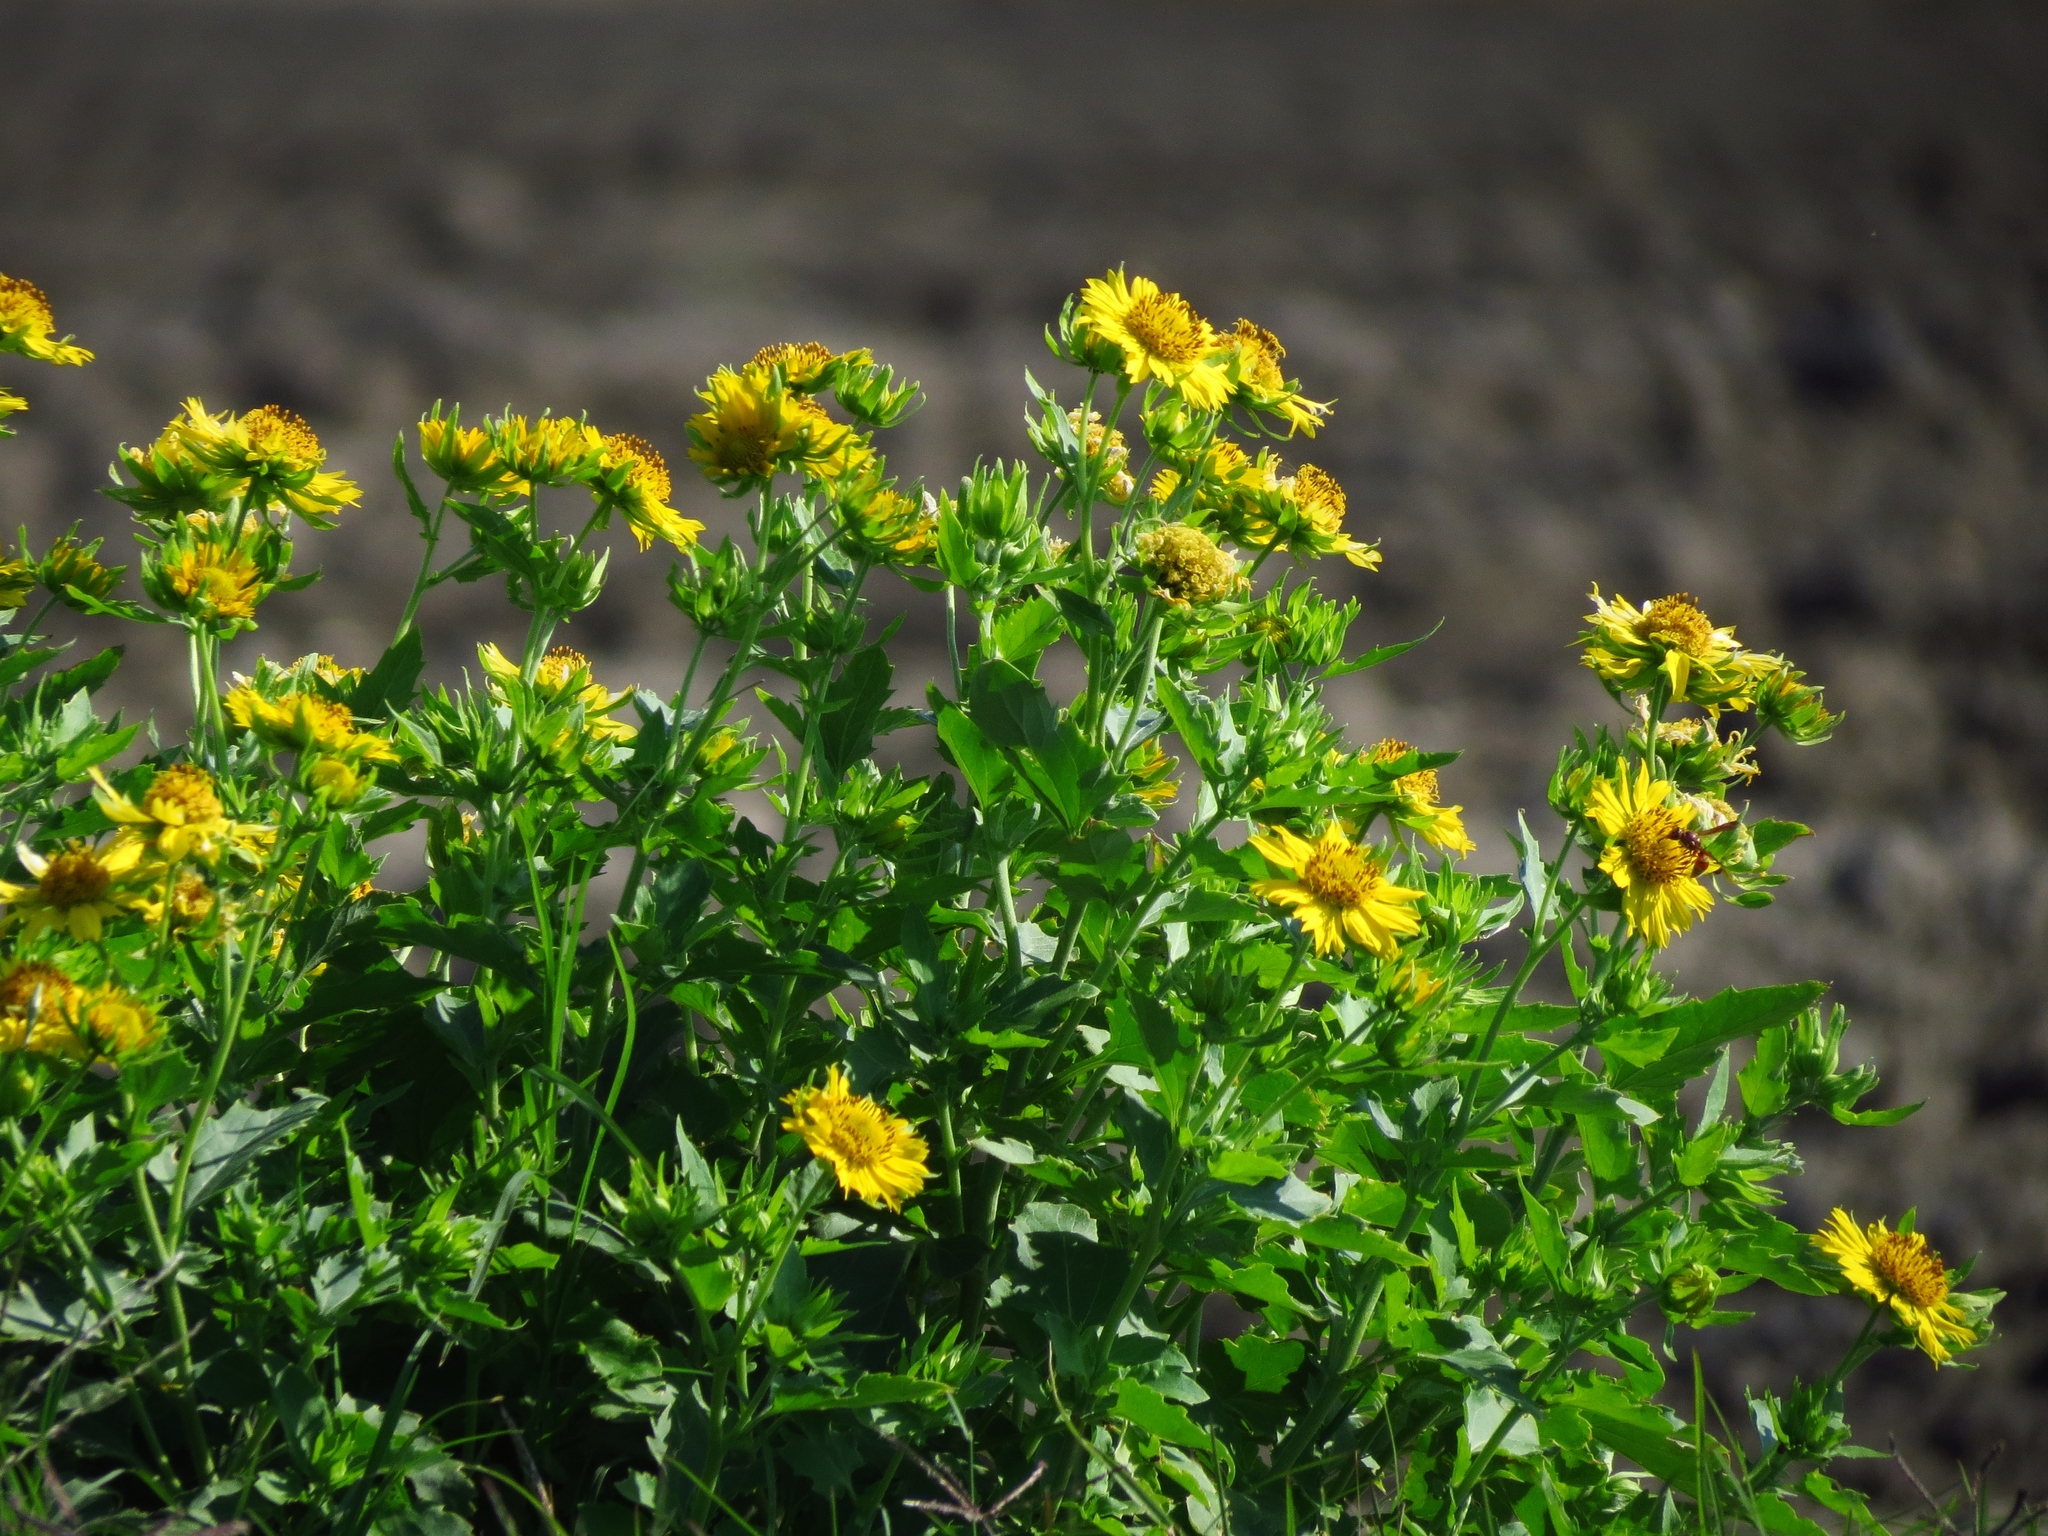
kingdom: Plantae
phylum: Tracheophyta
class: Magnoliopsida
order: Asterales
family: Asteraceae
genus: Verbesina
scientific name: Verbesina encelioides
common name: Golden crownbeard
